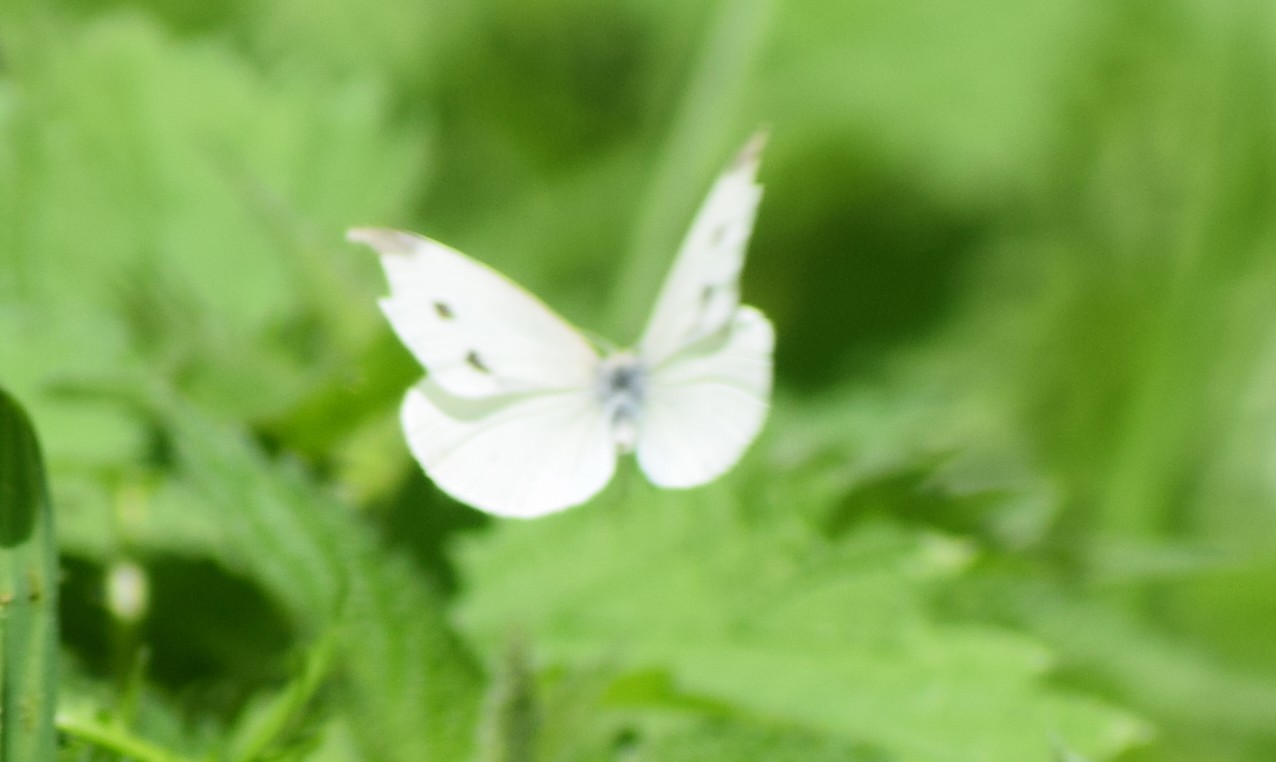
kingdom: Animalia
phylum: Arthropoda
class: Insecta
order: Lepidoptera
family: Pieridae
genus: Pieris
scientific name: Pieris rapae
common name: Small white
